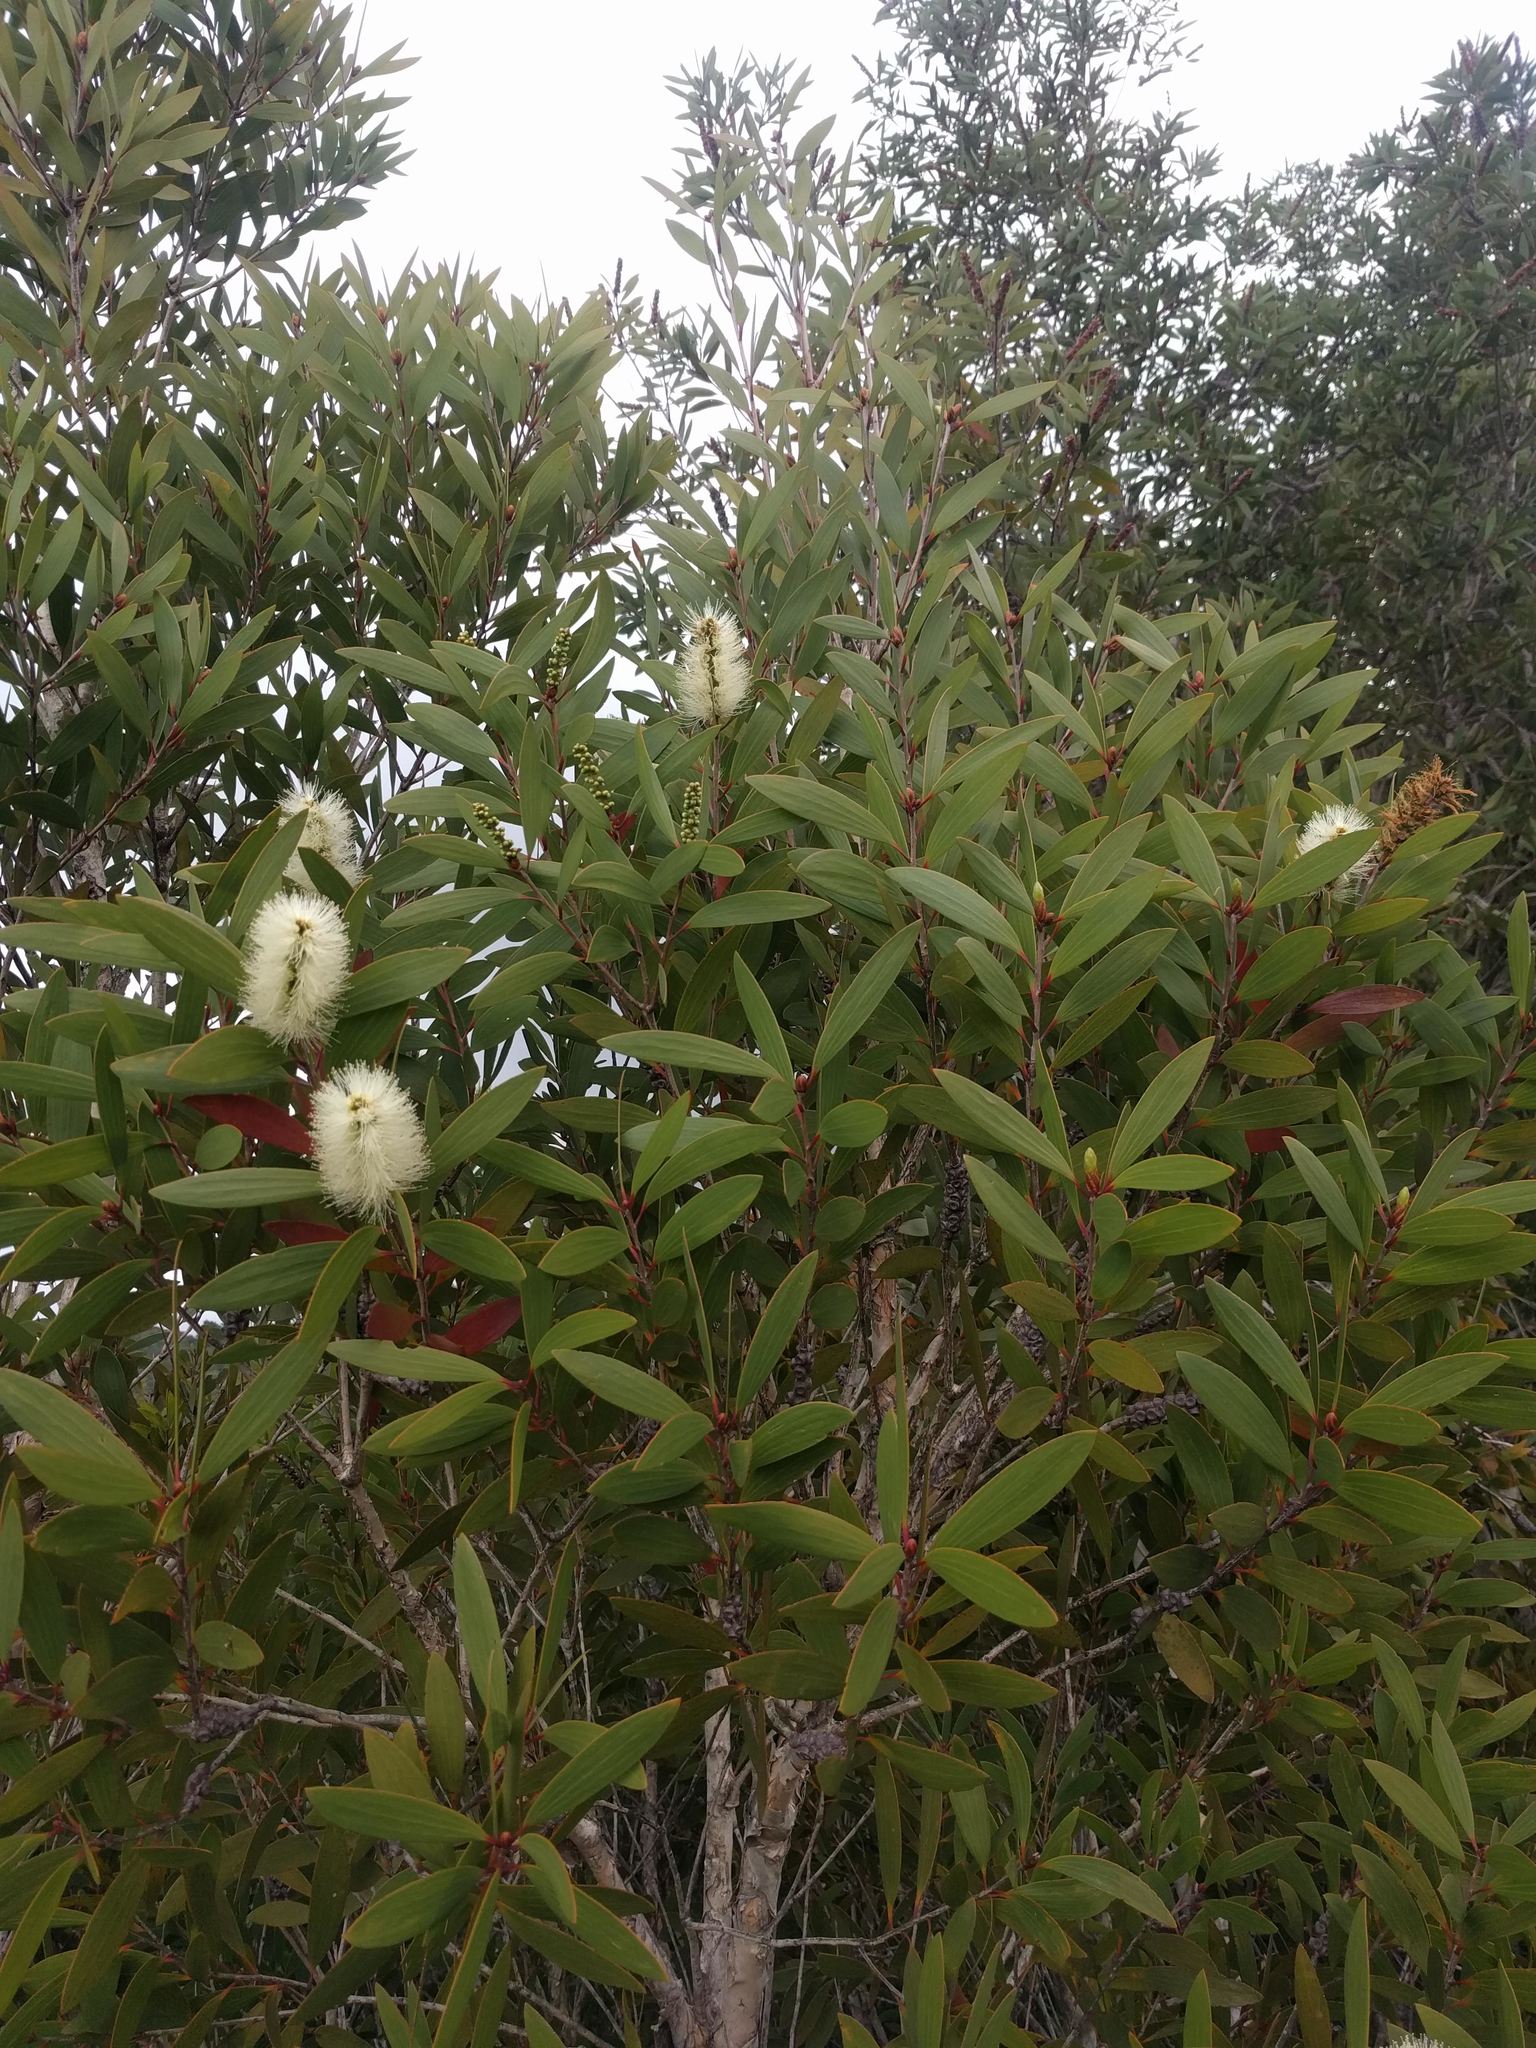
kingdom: Plantae
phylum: Tracheophyta
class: Magnoliopsida
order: Myrtales
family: Myrtaceae
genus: Melaleuca
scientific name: Melaleuca quinquenervia
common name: Punktree
